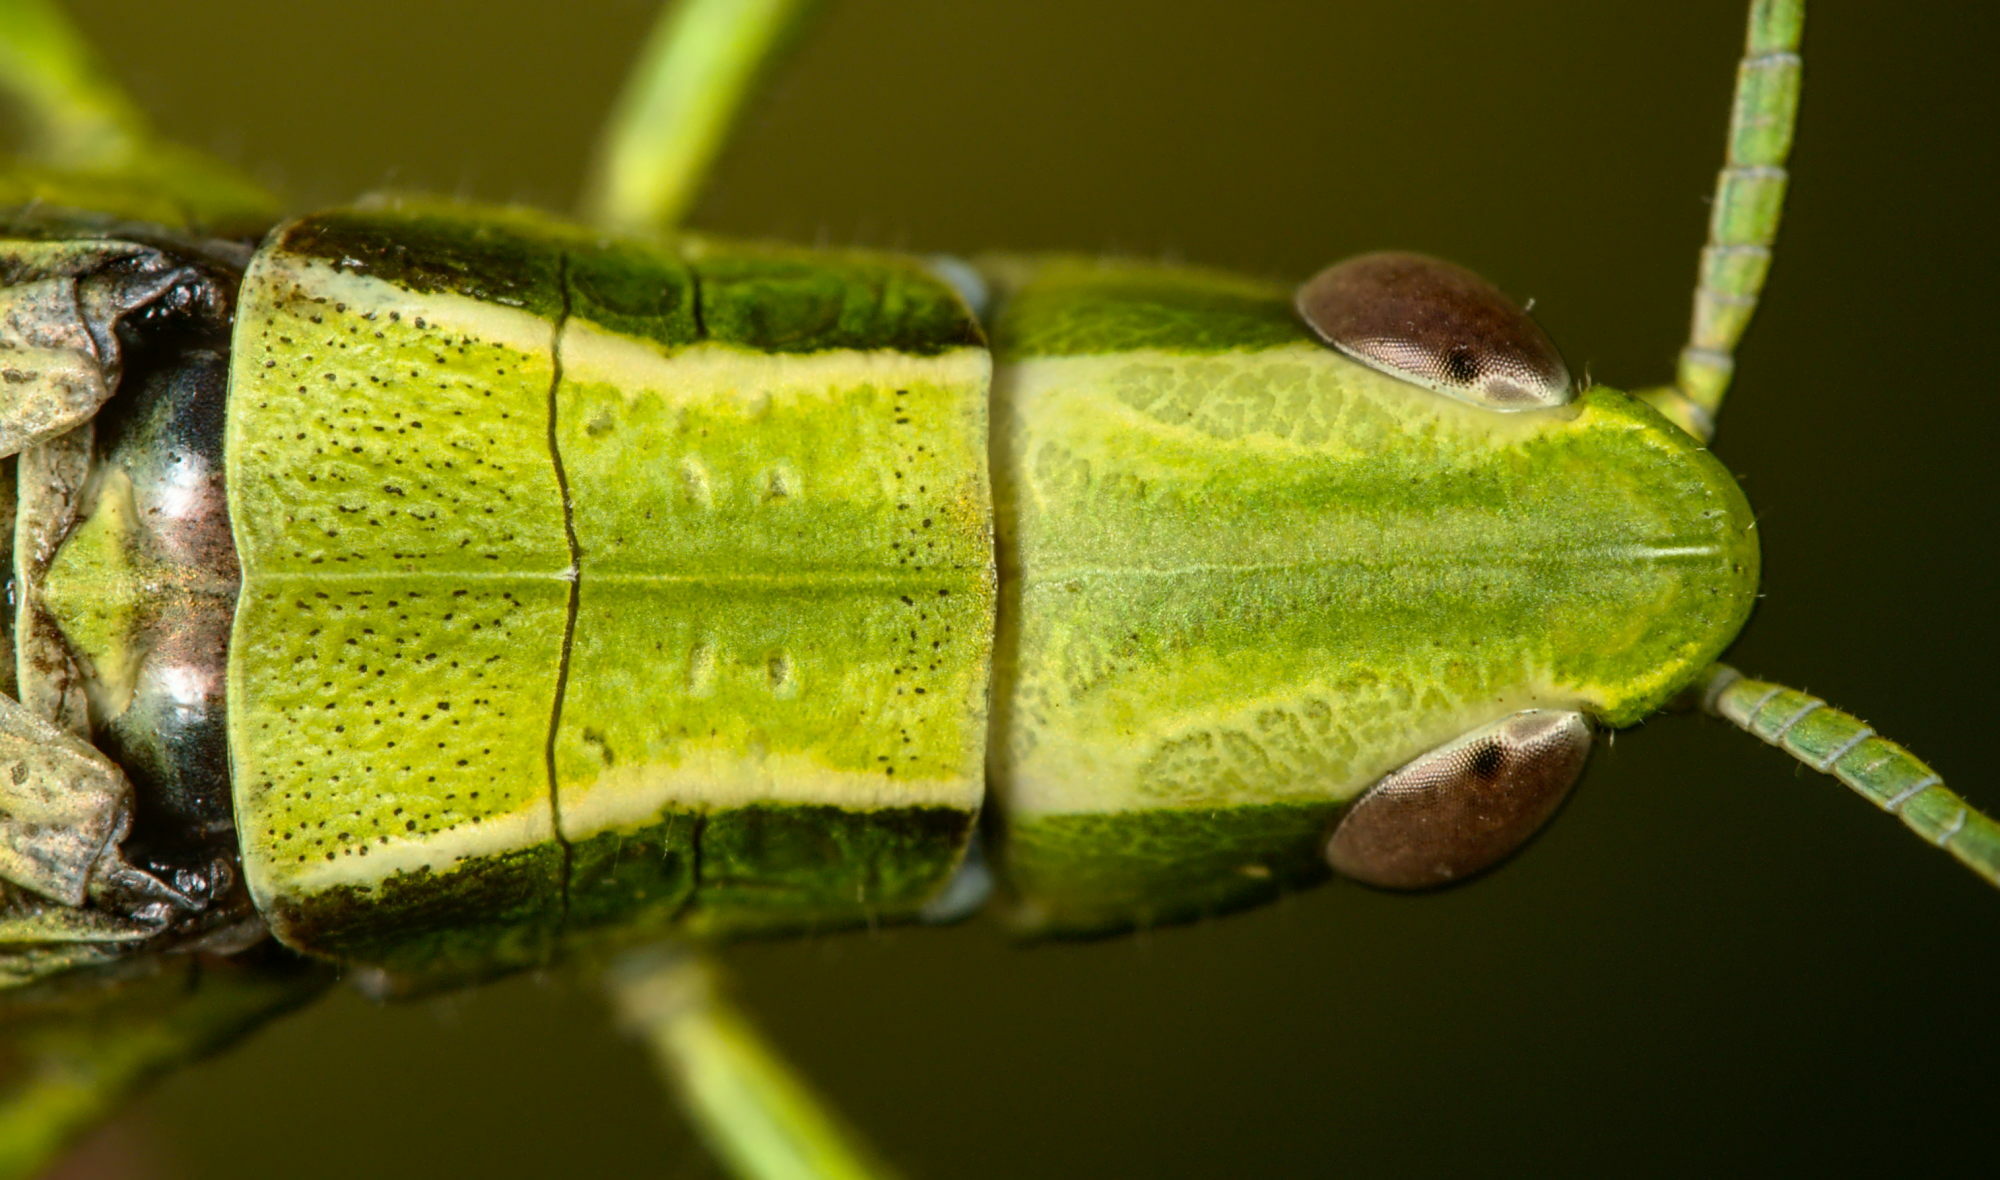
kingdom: Animalia
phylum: Arthropoda
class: Insecta
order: Orthoptera
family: Acrididae
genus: Euthystira
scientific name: Euthystira brachyptera
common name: Small gold grasshopper
